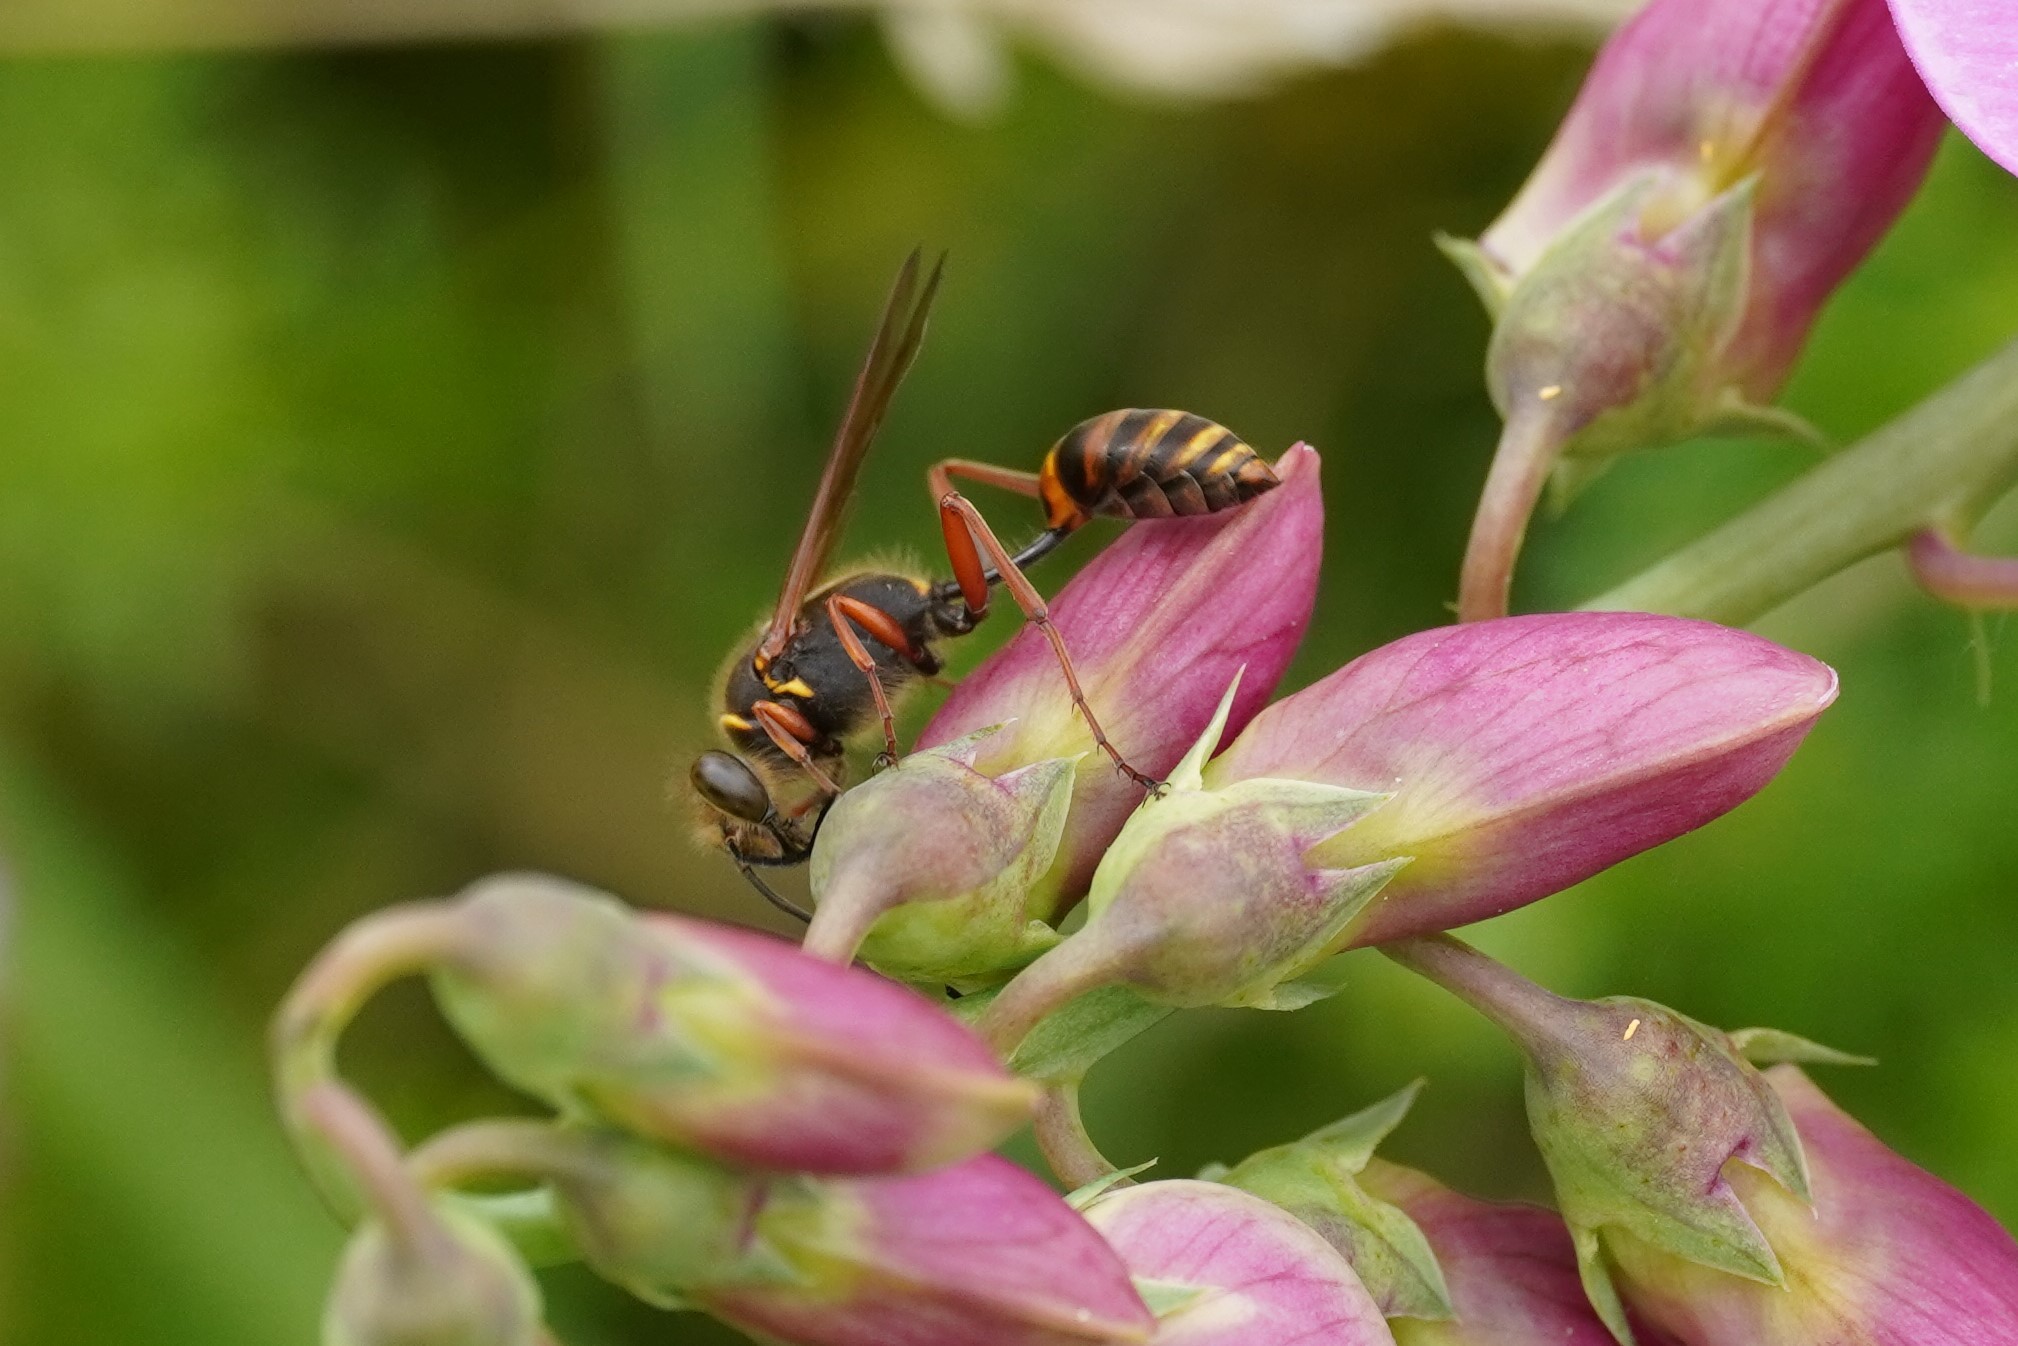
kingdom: Animalia
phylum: Arthropoda
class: Insecta
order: Hymenoptera
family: Sphecidae
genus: Sceliphron
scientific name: Sceliphron curvatum
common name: Pèlopèe
